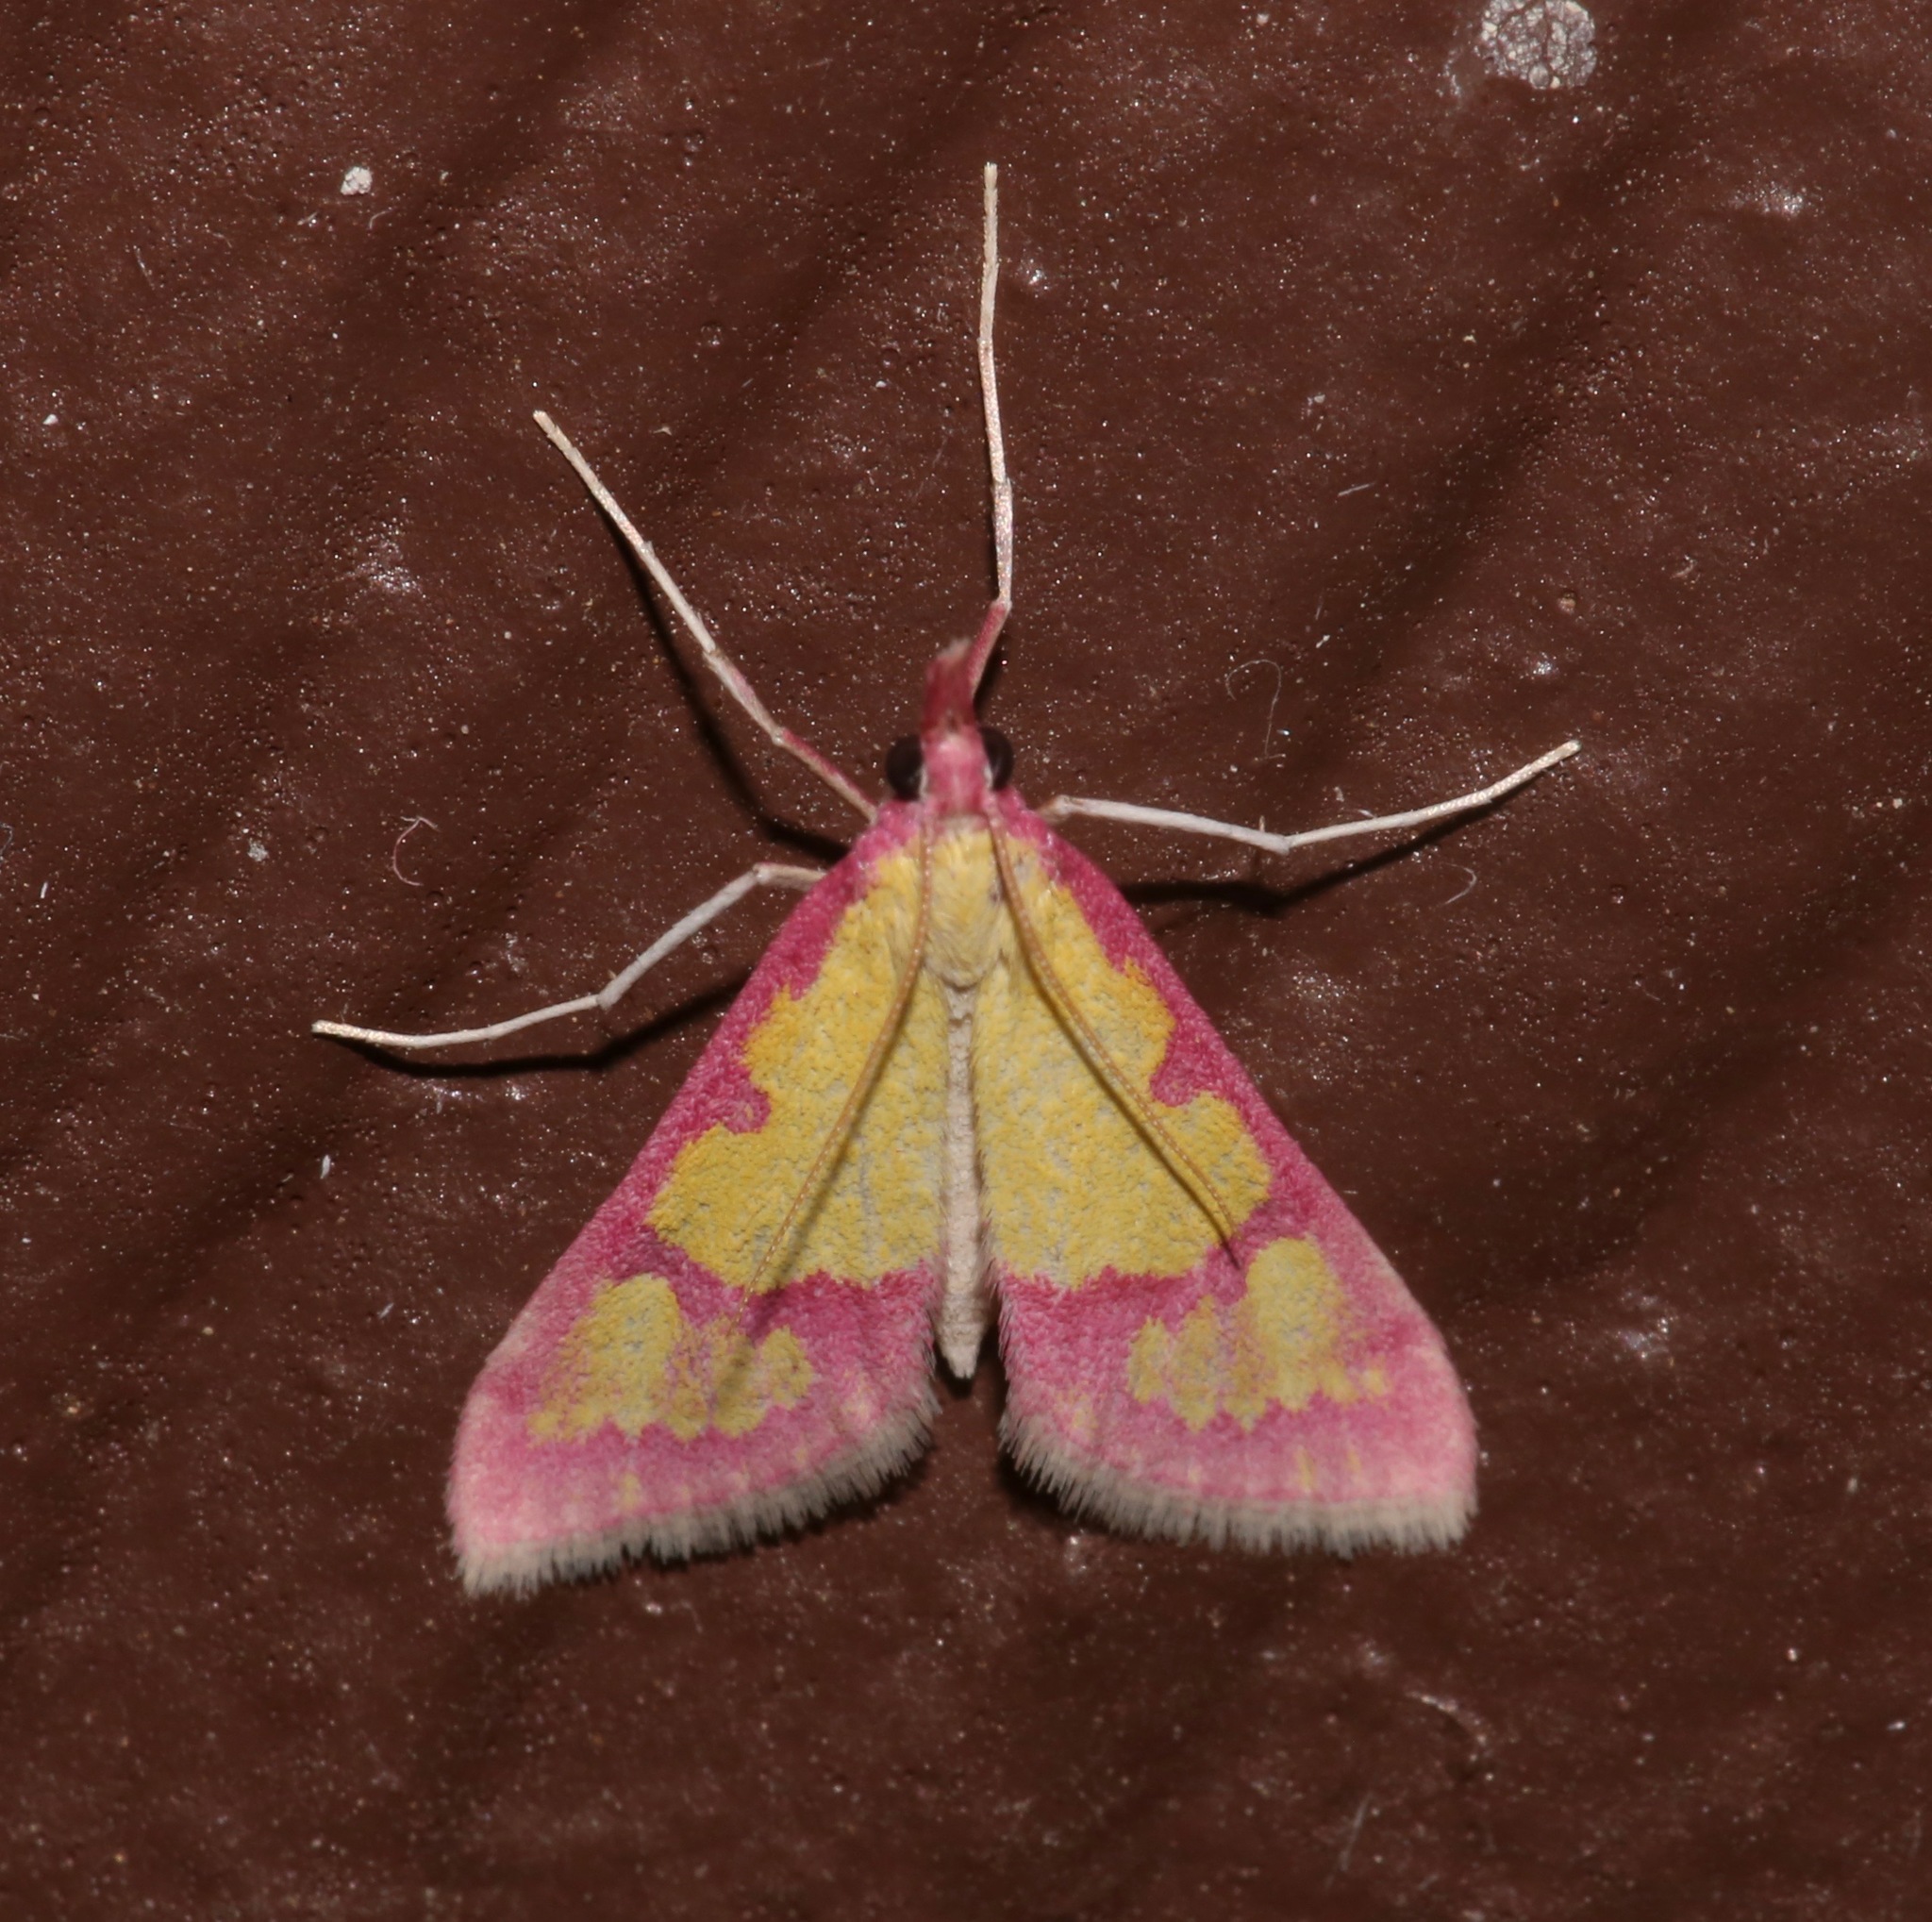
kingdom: Animalia
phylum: Arthropoda
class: Insecta
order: Lepidoptera
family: Crambidae
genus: Choristostigma
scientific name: Choristostigma roseopennalis
